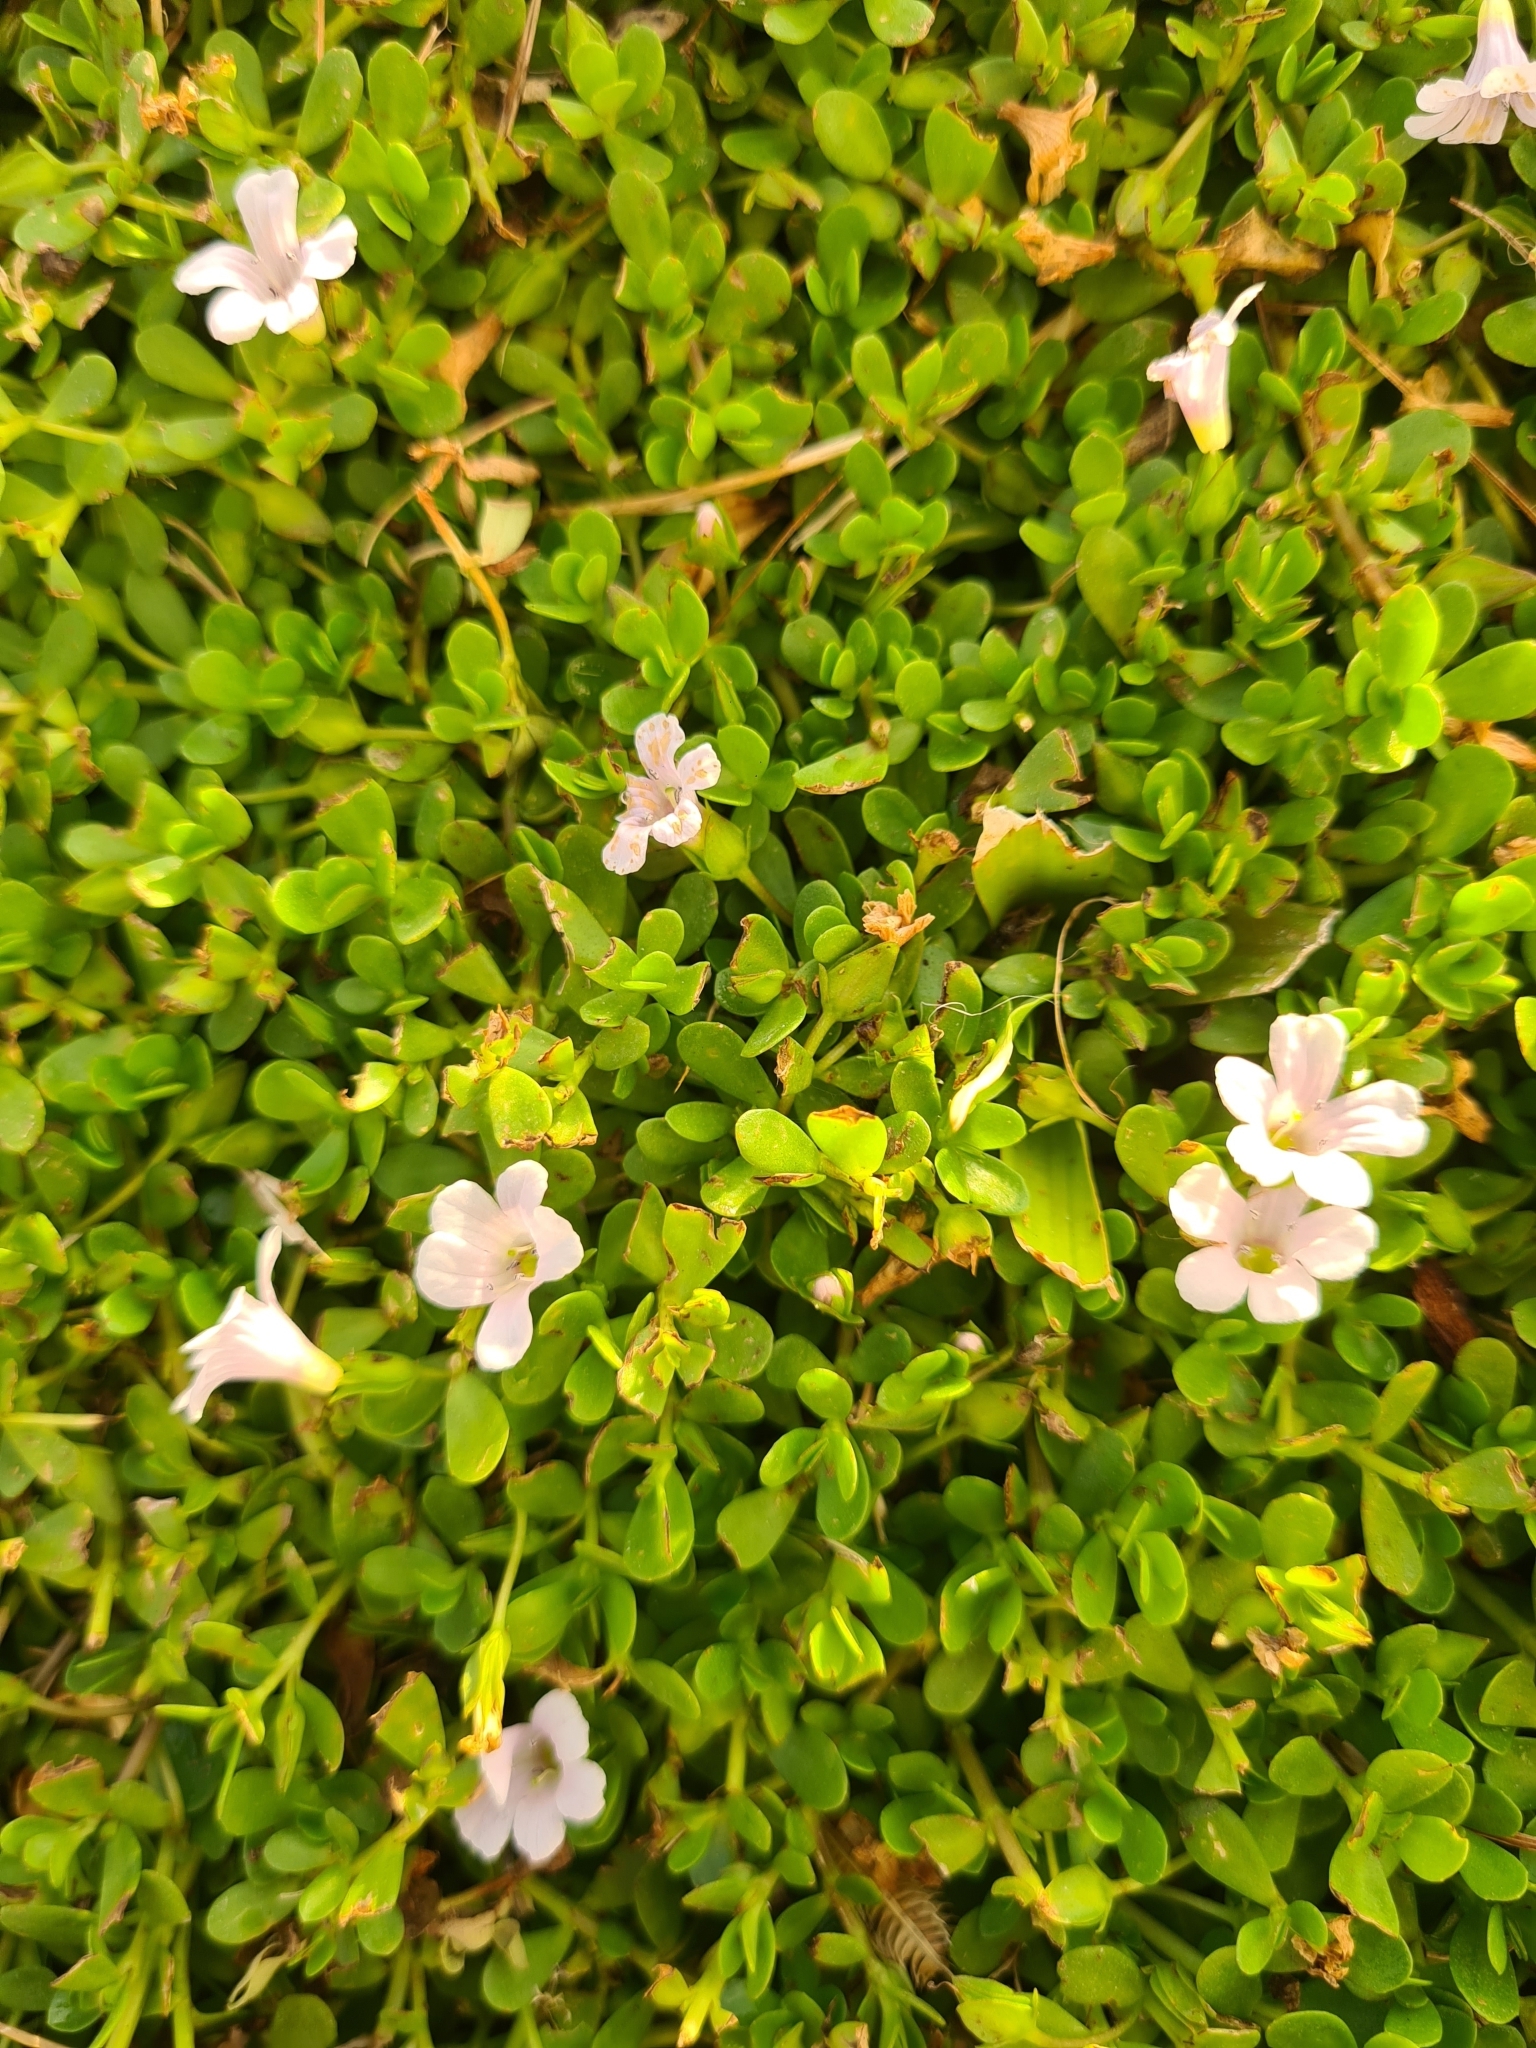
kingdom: Plantae
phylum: Tracheophyta
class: Magnoliopsida
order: Lamiales
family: Plantaginaceae
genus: Bacopa
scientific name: Bacopa monnieri
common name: Indian-pennywort
